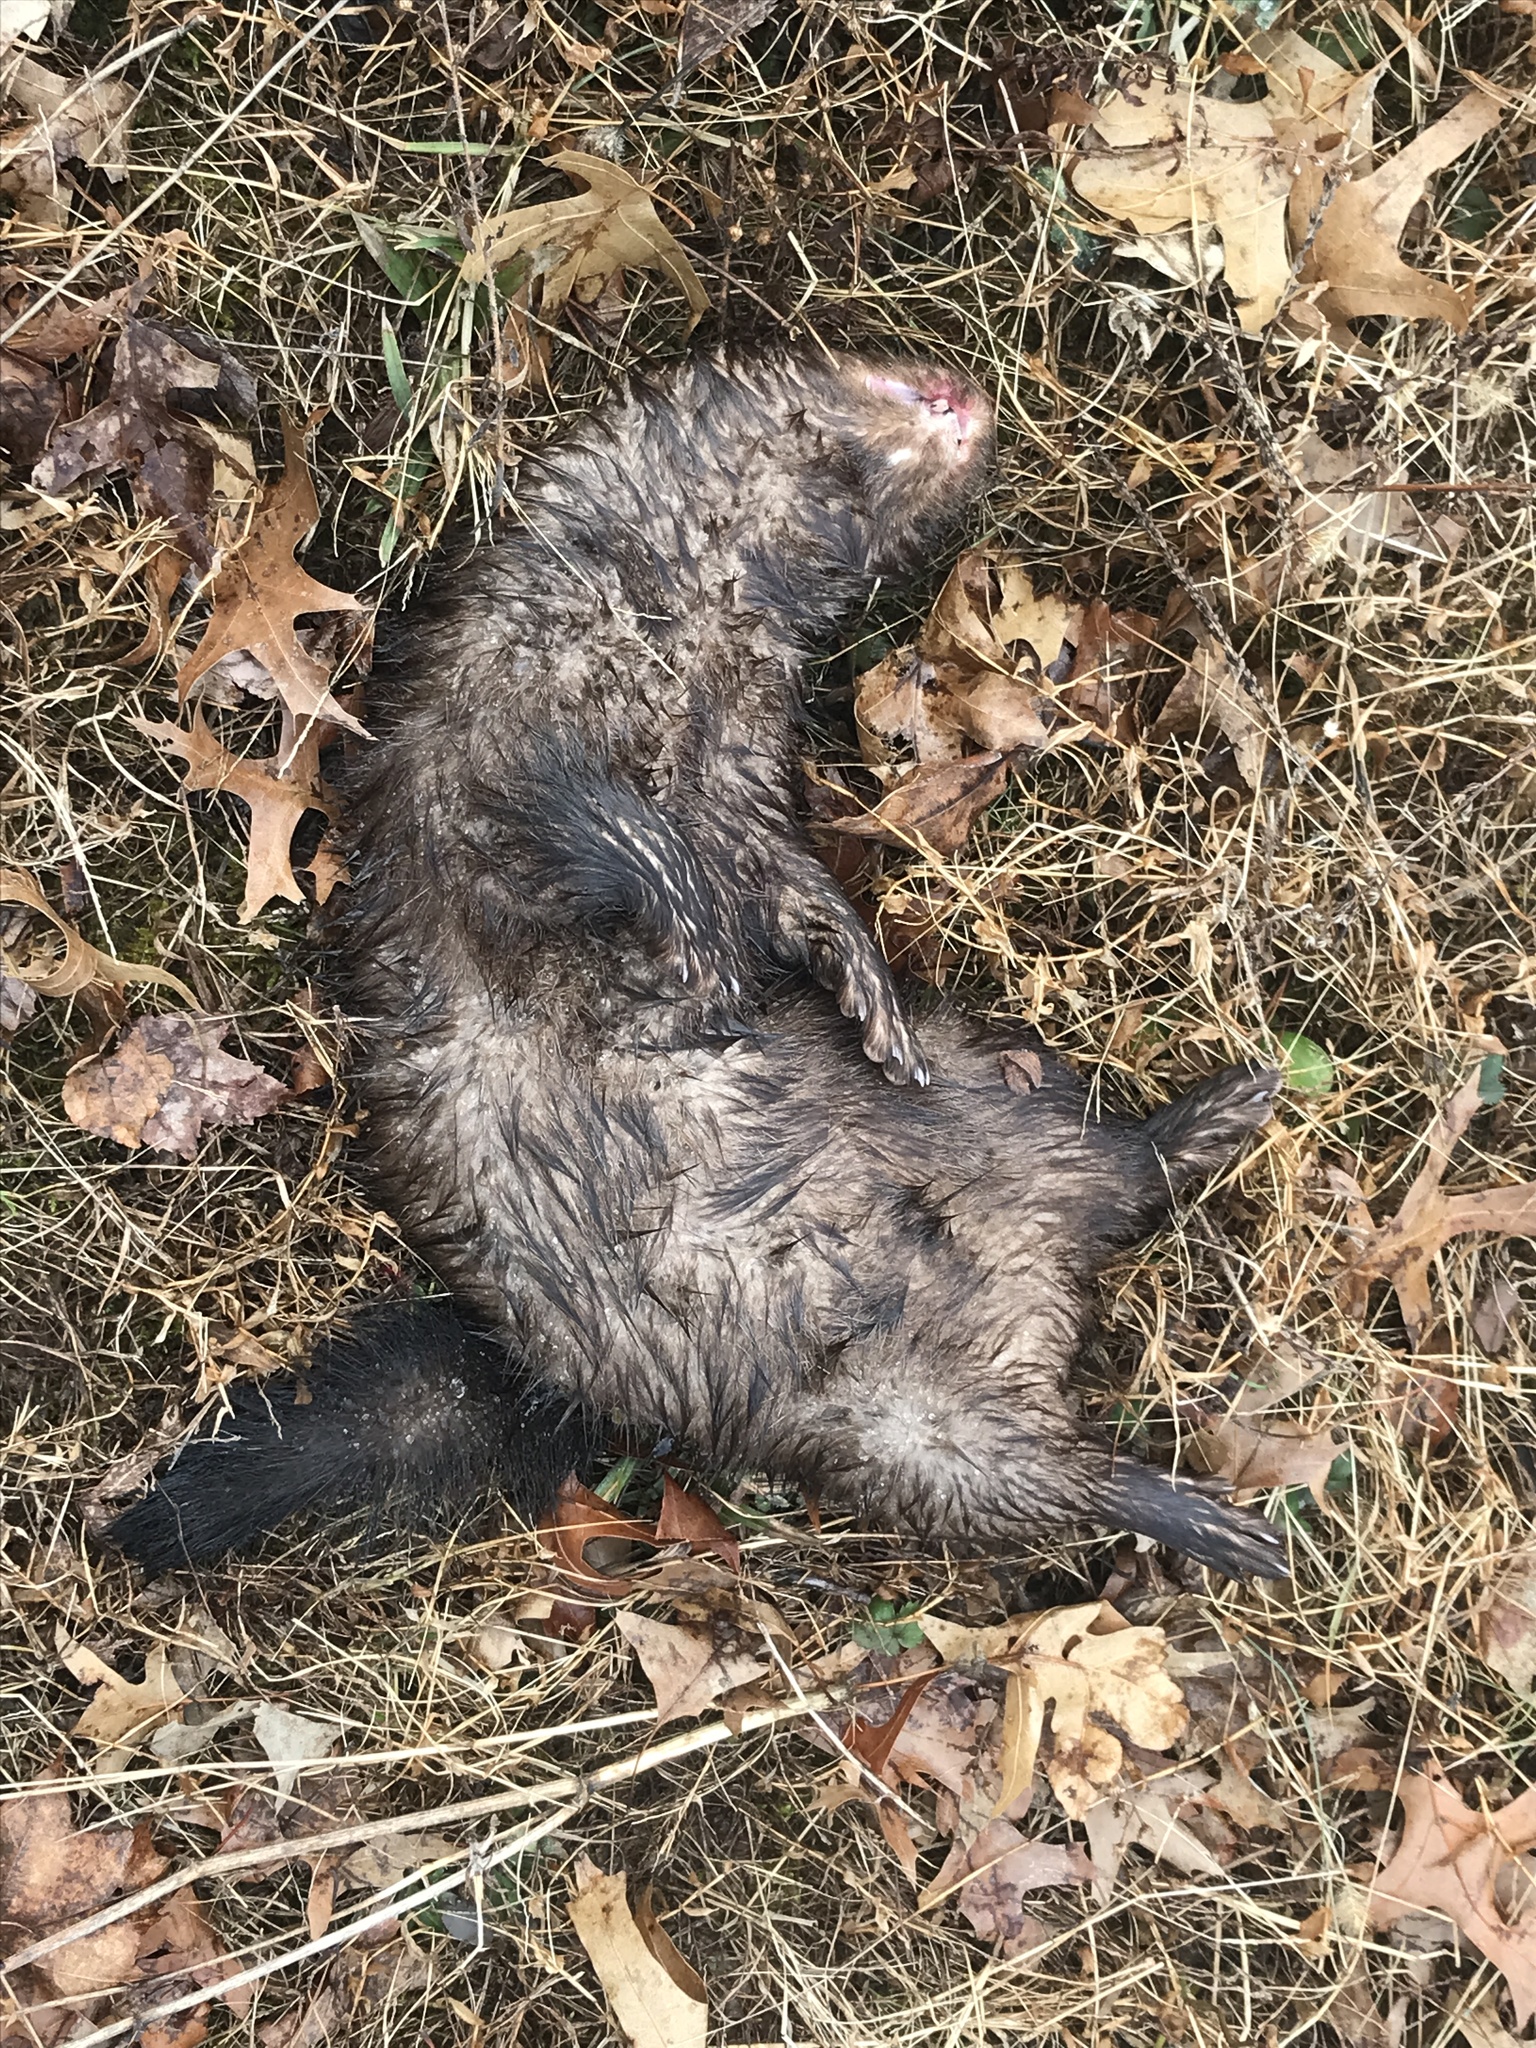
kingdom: Animalia
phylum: Chordata
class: Mammalia
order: Carnivora
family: Mustelidae
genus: Mustela
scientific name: Mustela
